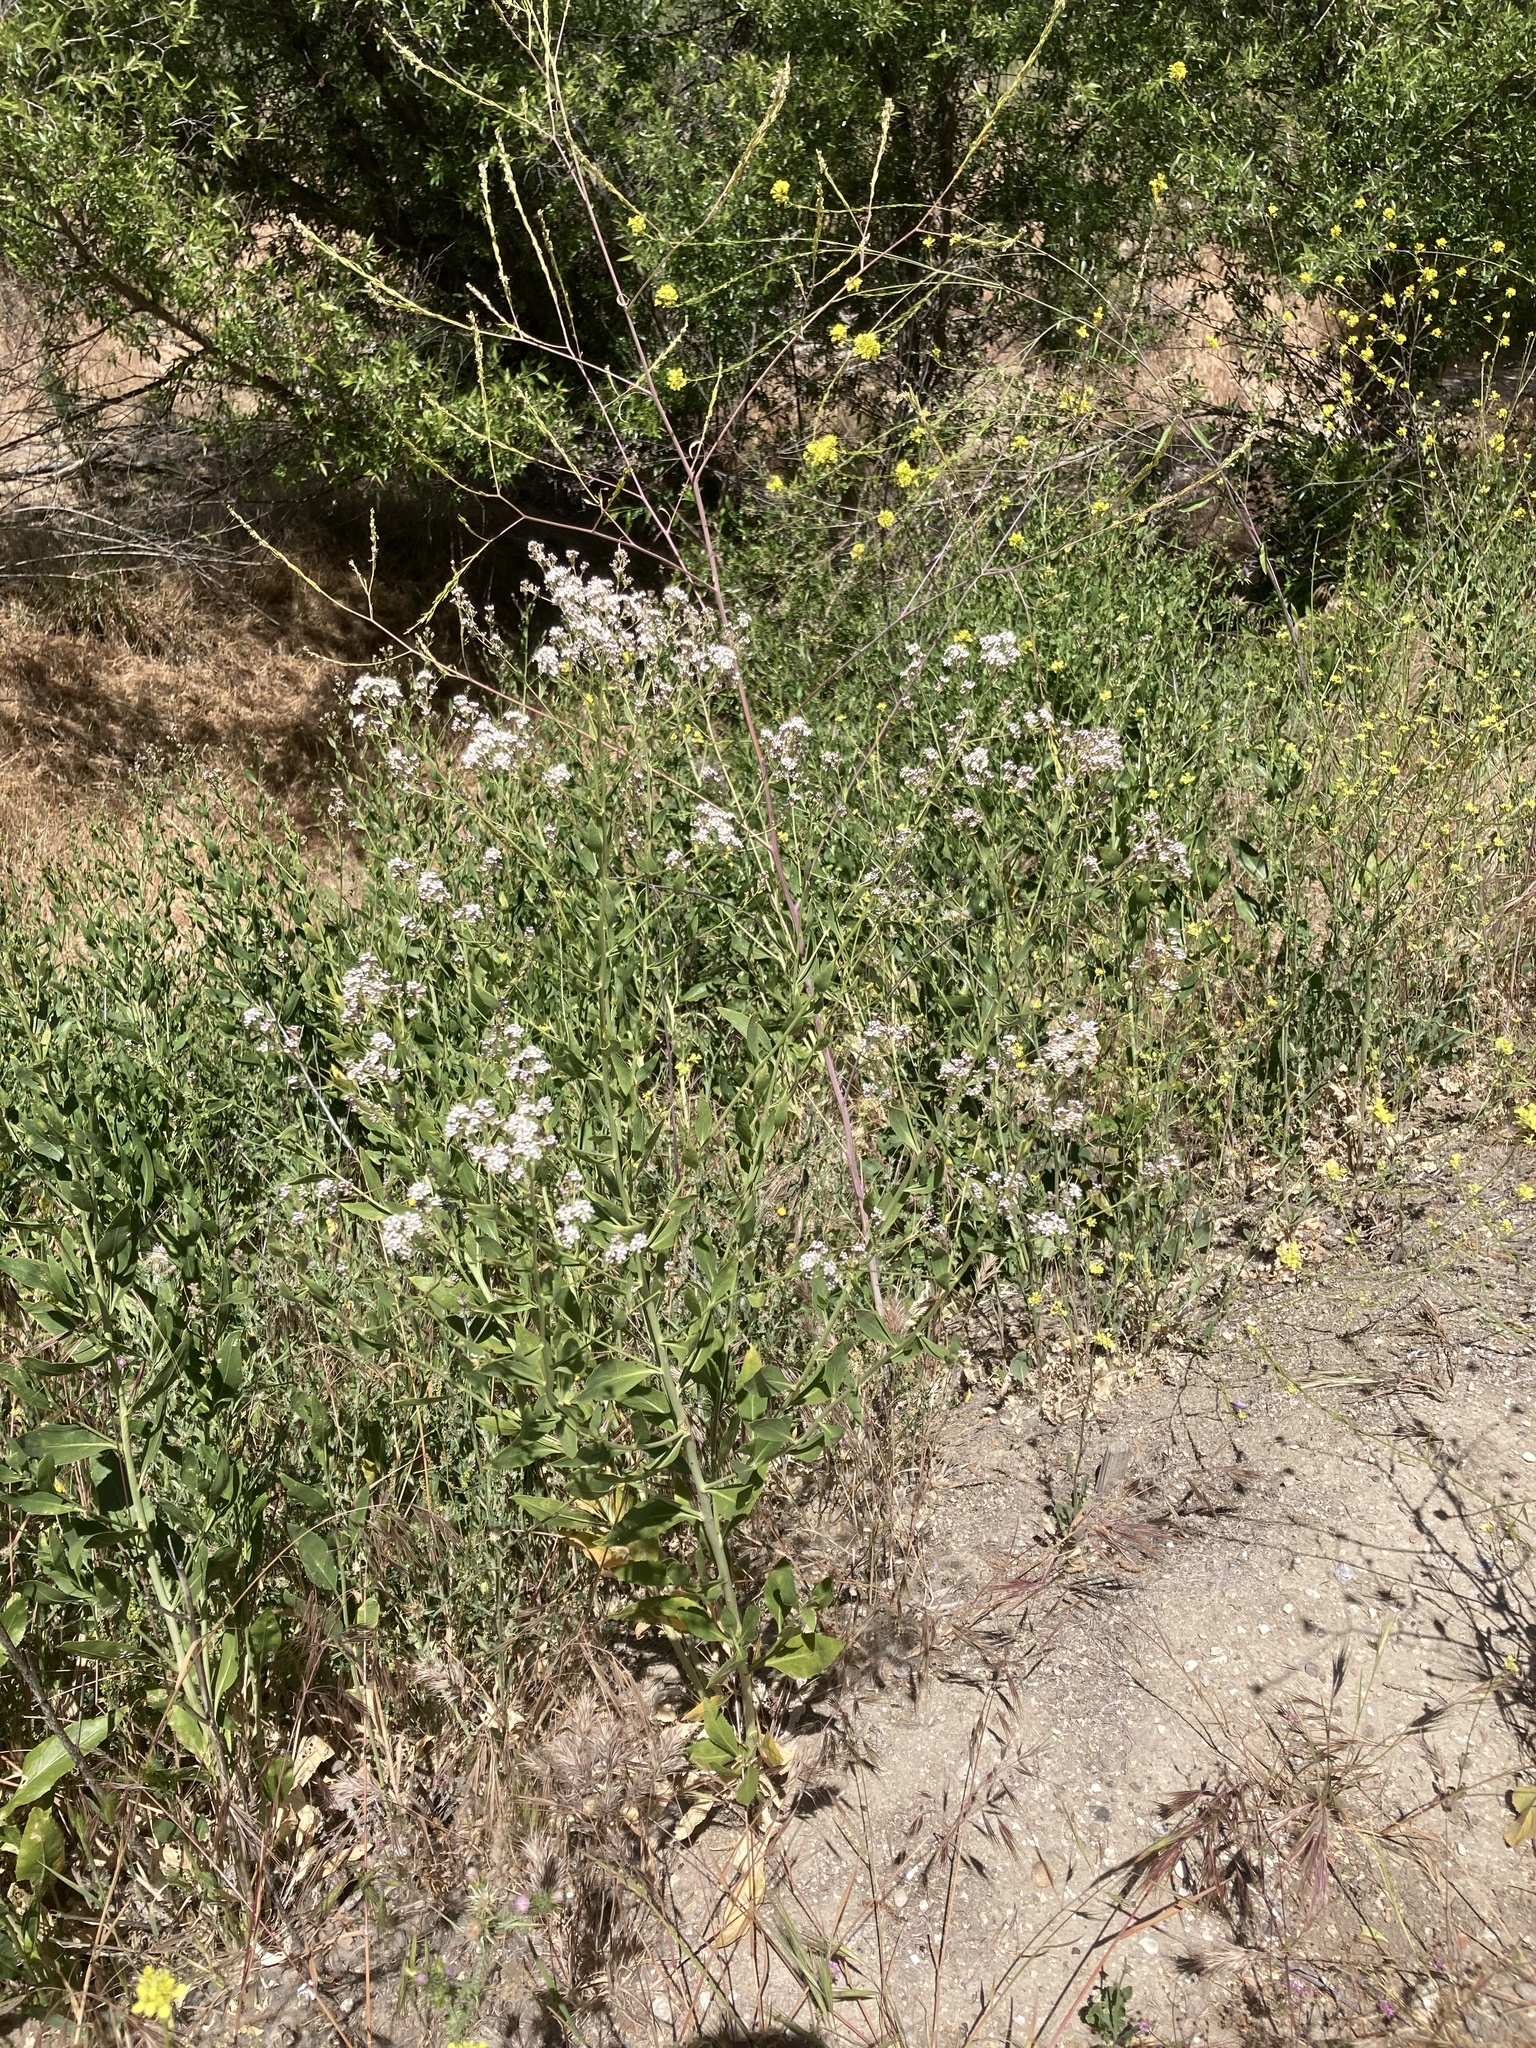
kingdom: Plantae
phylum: Tracheophyta
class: Magnoliopsida
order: Brassicales
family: Brassicaceae
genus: Lepidium
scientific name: Lepidium latifolium
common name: Dittander
